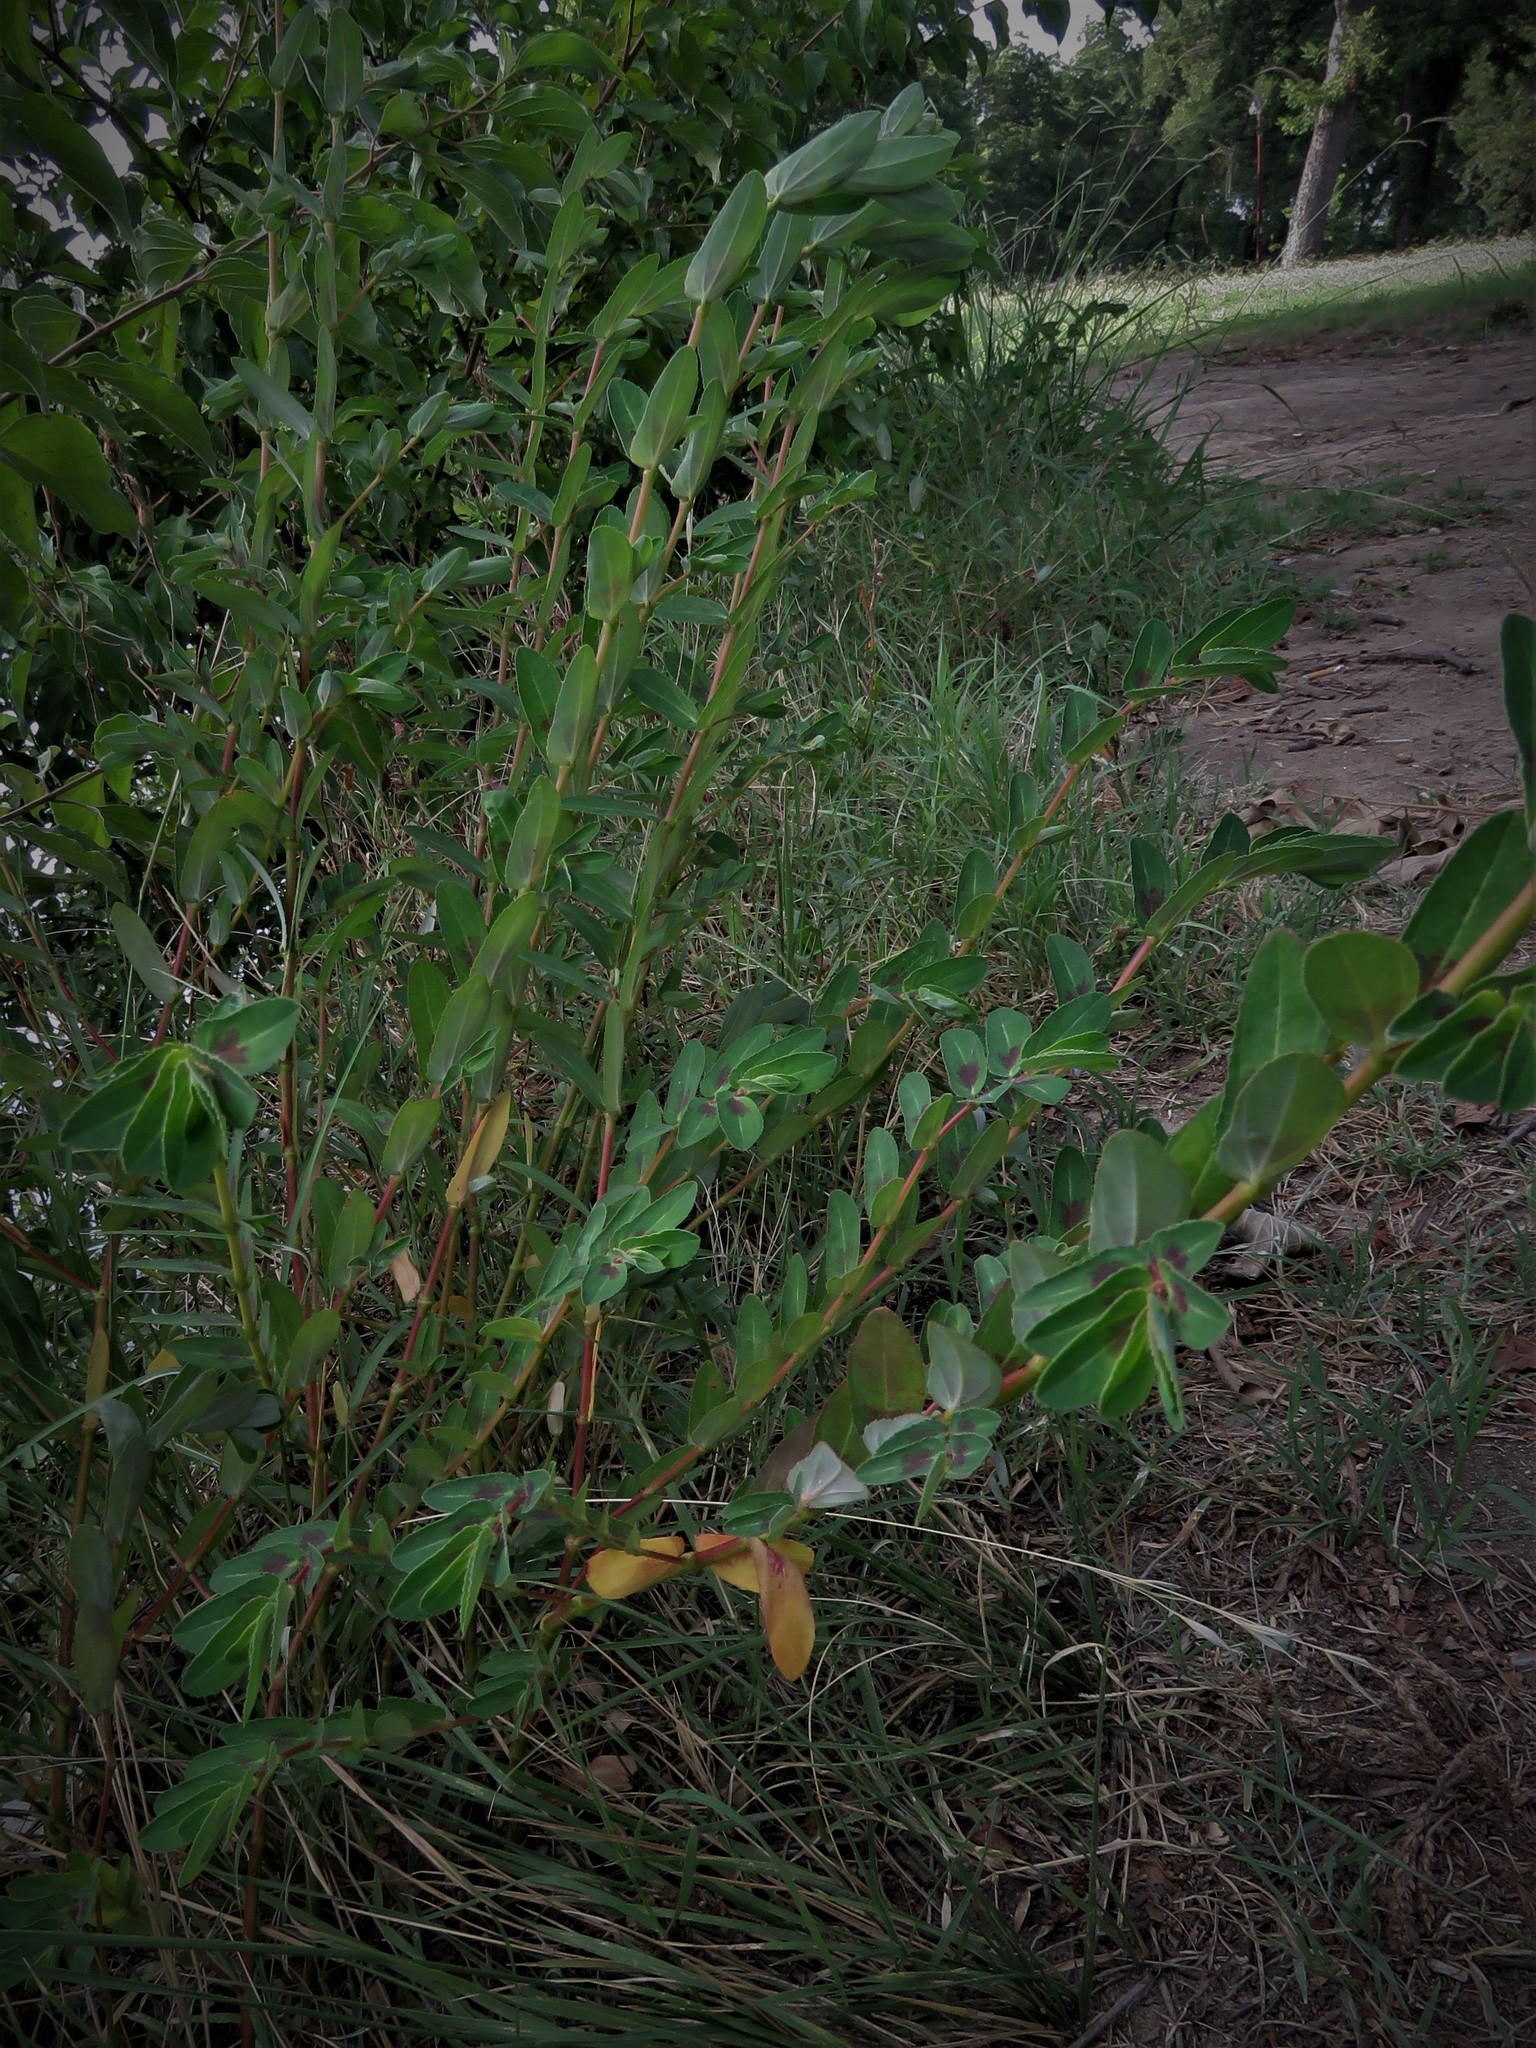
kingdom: Plantae
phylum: Tracheophyta
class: Magnoliopsida
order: Malpighiales
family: Euphorbiaceae
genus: Euphorbia
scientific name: Euphorbia nutans
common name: Eyebane
